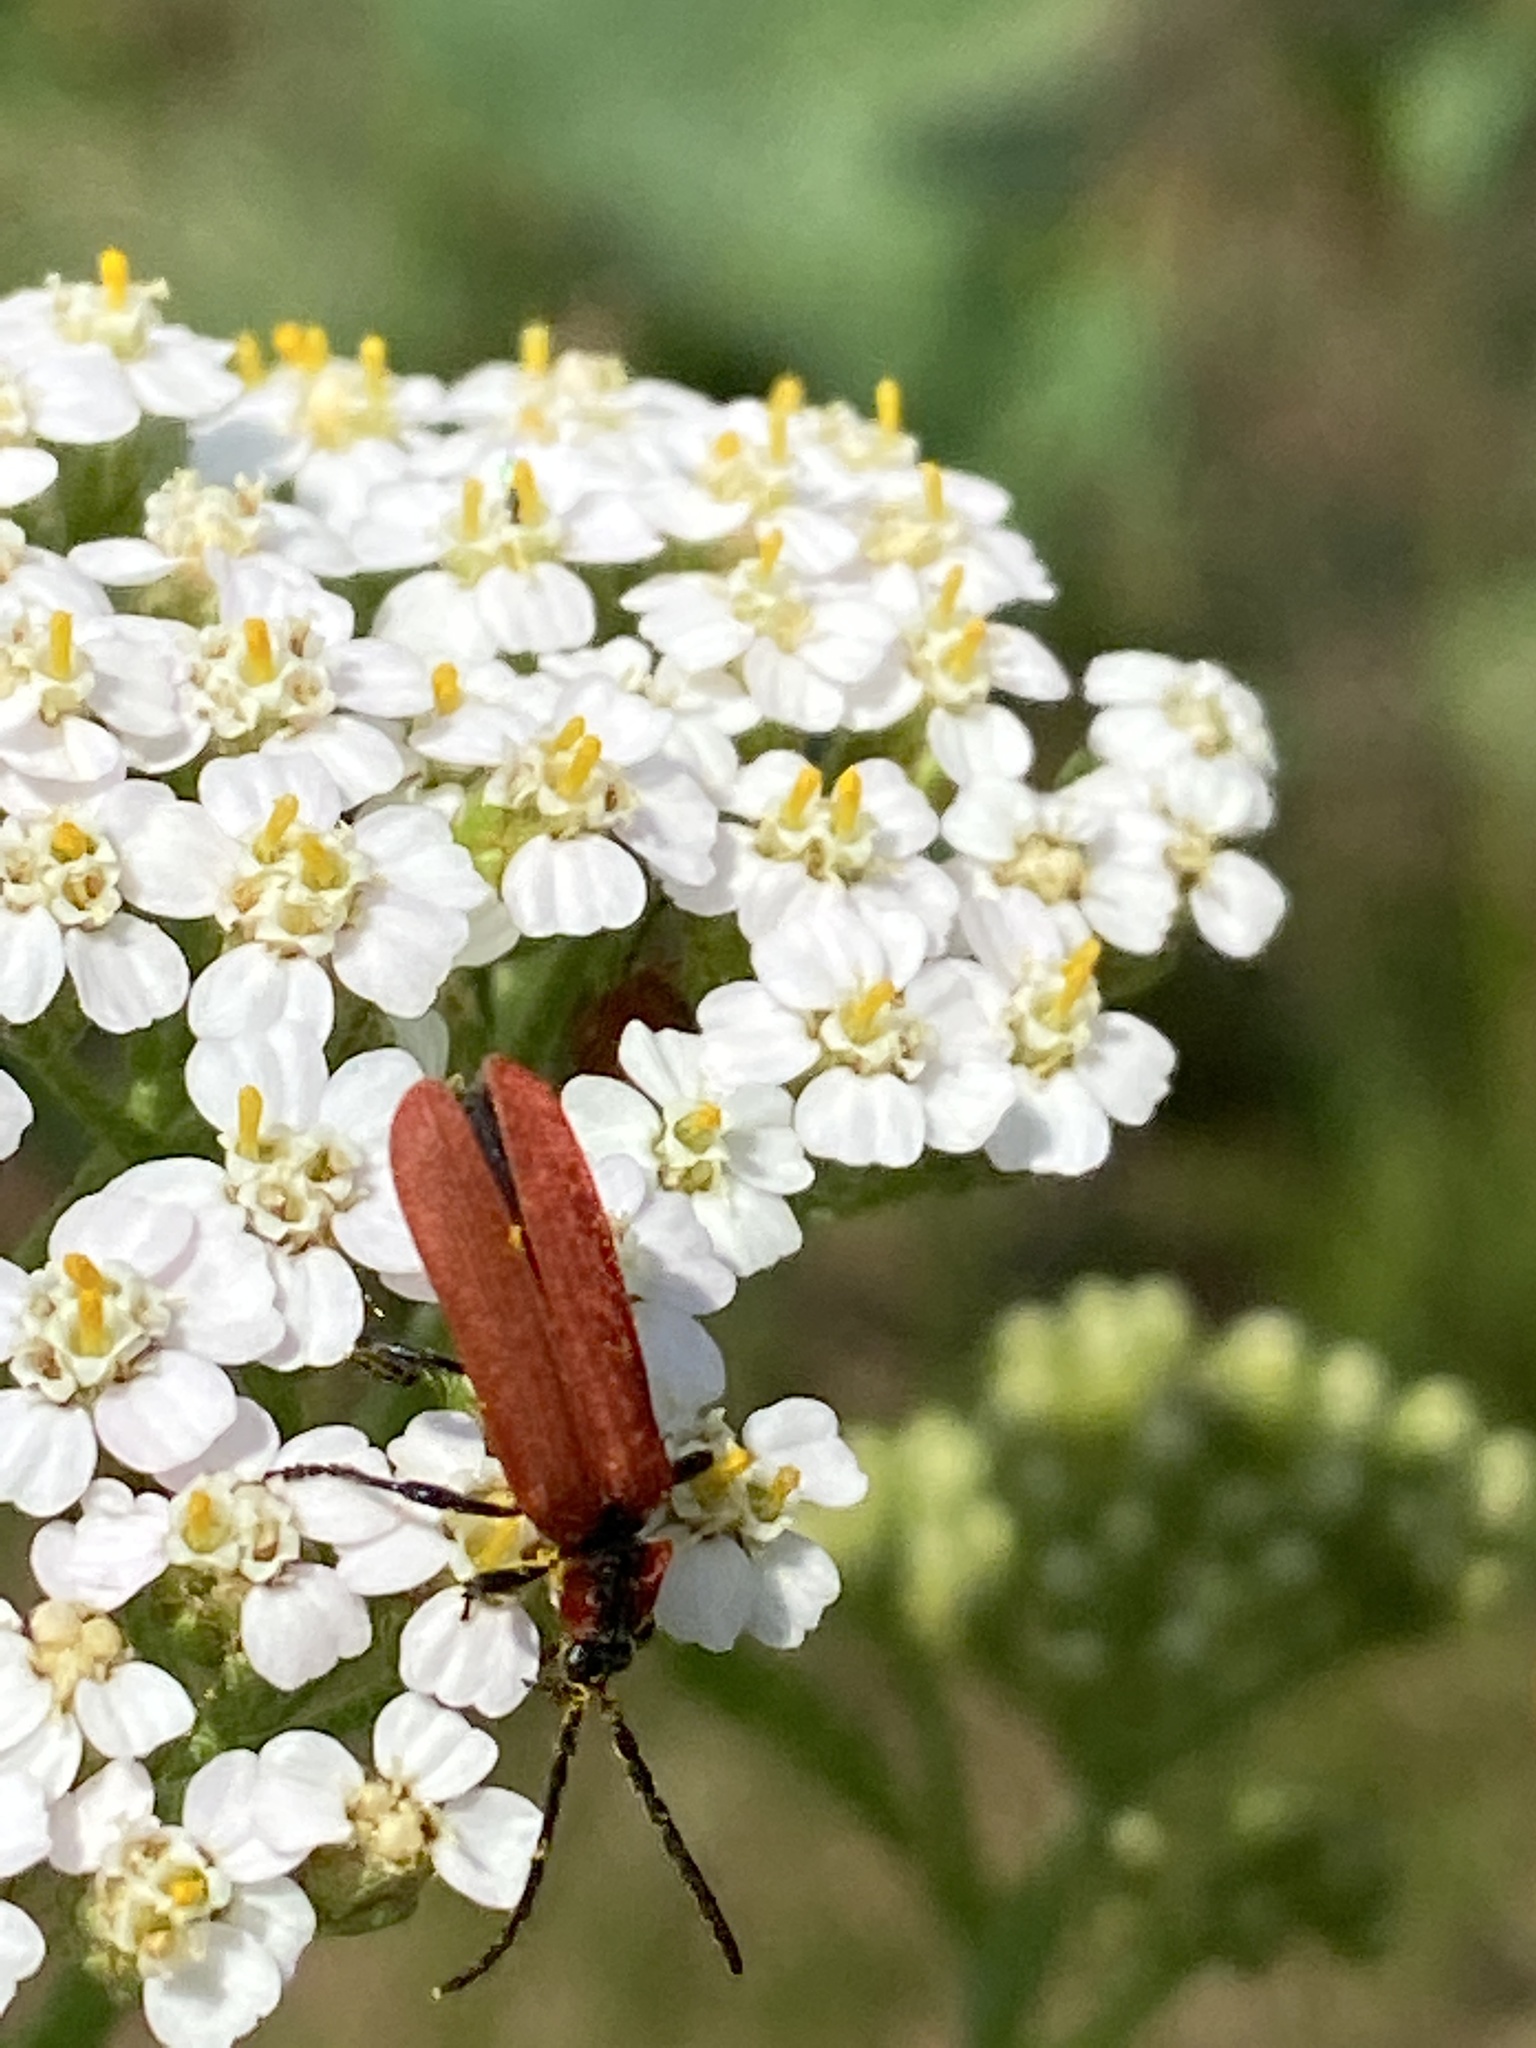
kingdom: Animalia
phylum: Arthropoda
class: Insecta
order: Coleoptera
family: Lycidae
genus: Lygistopterus
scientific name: Lygistopterus sanguineus
